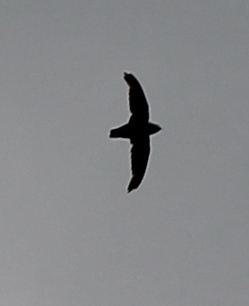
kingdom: Animalia
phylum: Chordata
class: Aves
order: Apodiformes
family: Apodidae
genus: Chaetura
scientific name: Chaetura pelagica
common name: Chimney swift
